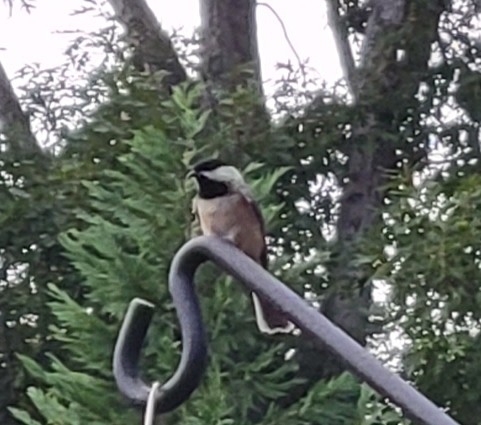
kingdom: Animalia
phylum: Chordata
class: Aves
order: Passeriformes
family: Paridae
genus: Poecile
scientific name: Poecile carolinensis
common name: Carolina chickadee
